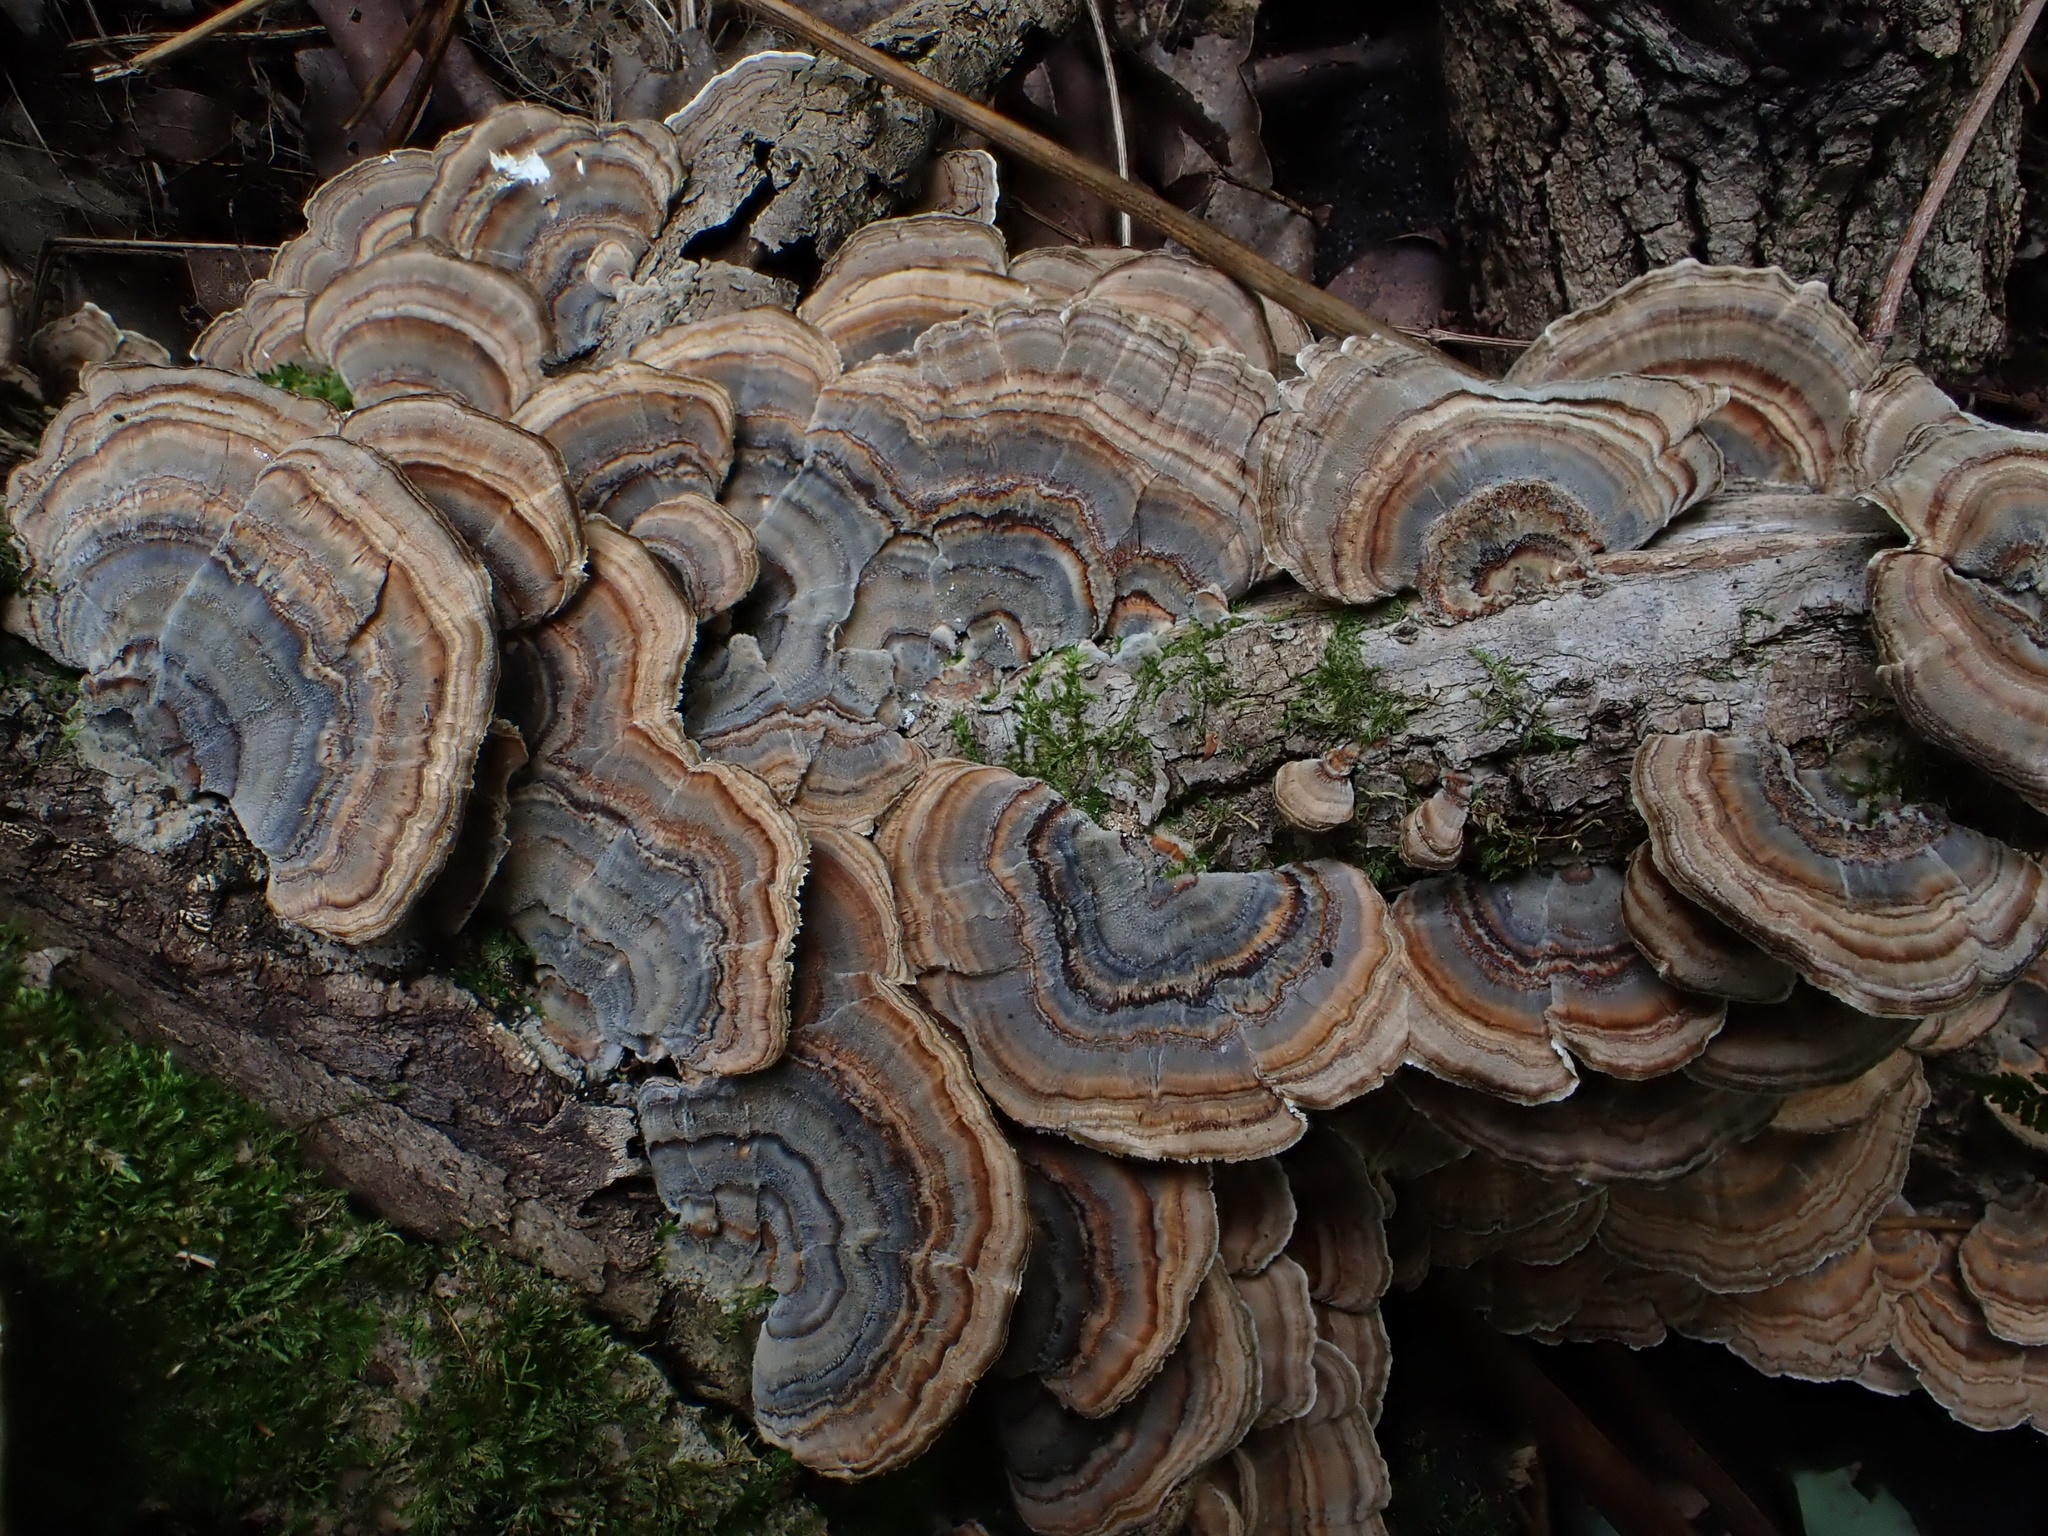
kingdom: Fungi
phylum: Basidiomycota
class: Agaricomycetes
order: Polyporales
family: Polyporaceae
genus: Trametes
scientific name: Trametes versicolor
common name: Turkeytail
